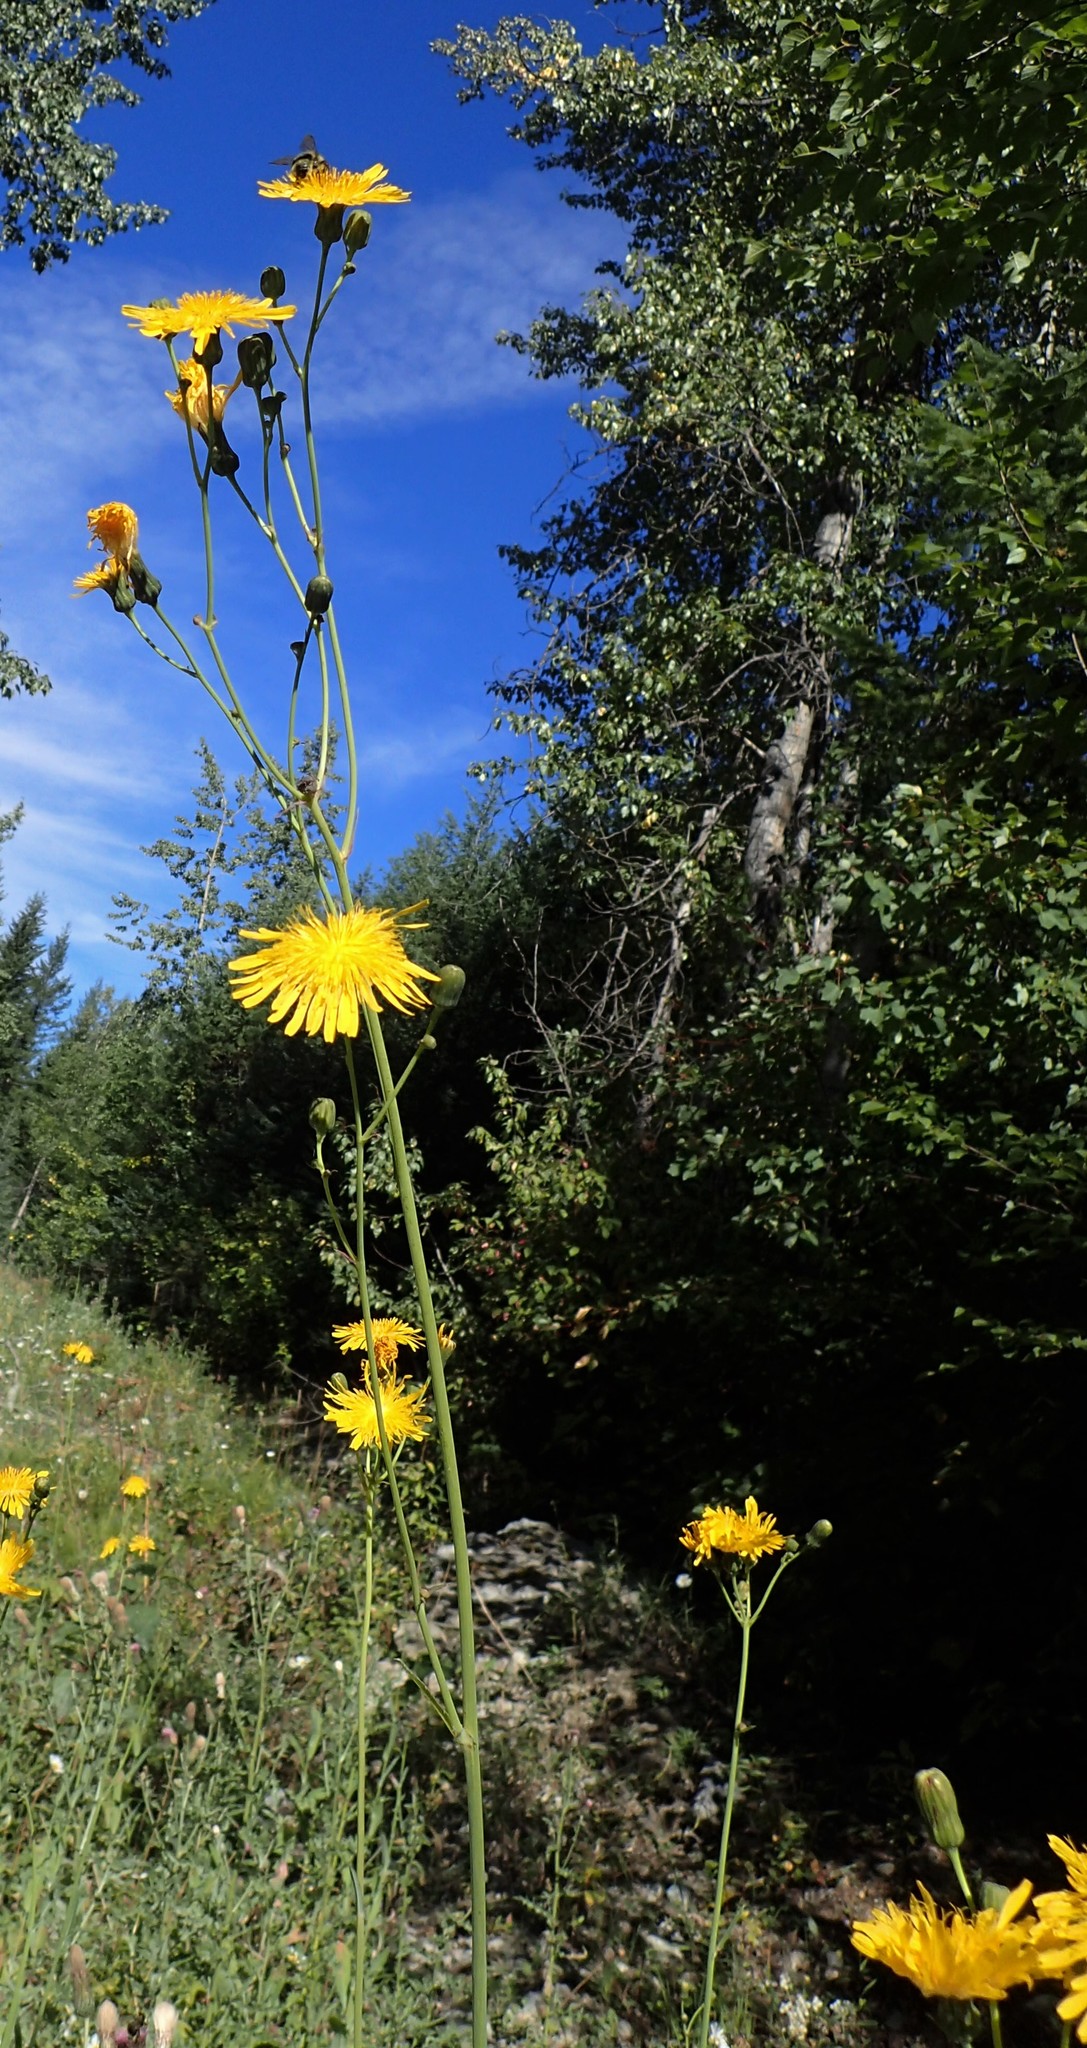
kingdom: Plantae
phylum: Tracheophyta
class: Magnoliopsida
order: Asterales
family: Asteraceae
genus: Sonchus
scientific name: Sonchus arvensis
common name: Perennial sow-thistle
